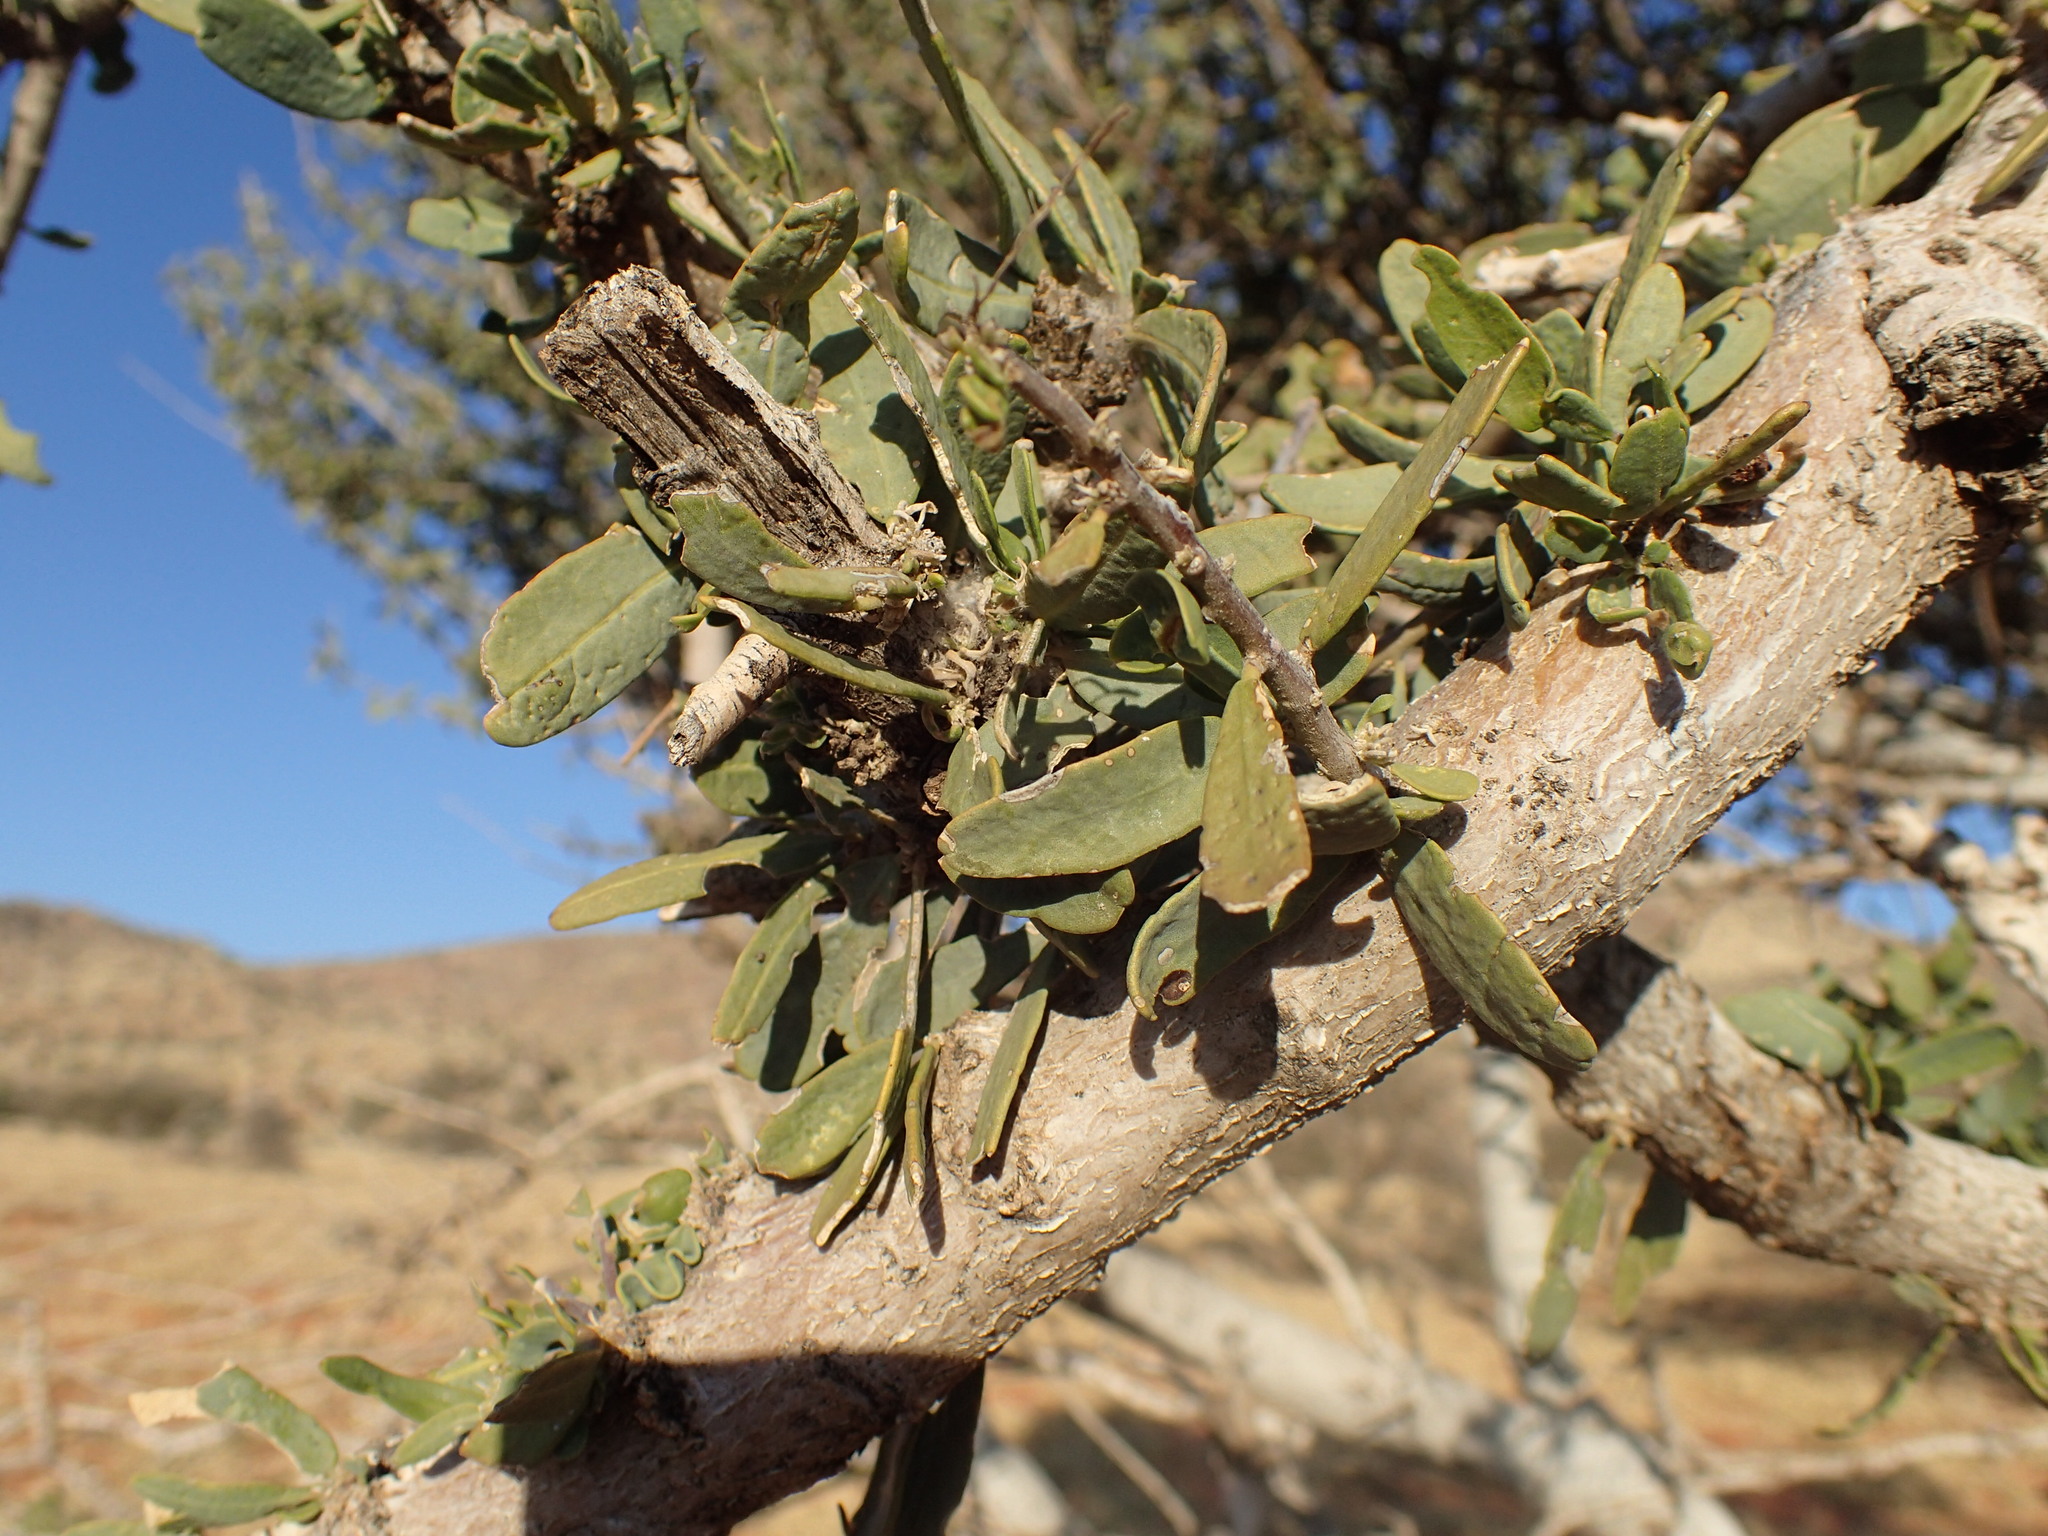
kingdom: Plantae
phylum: Tracheophyta
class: Magnoliopsida
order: Brassicales
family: Capparaceae
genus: Boscia
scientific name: Boscia albitrunca
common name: Caper bush
